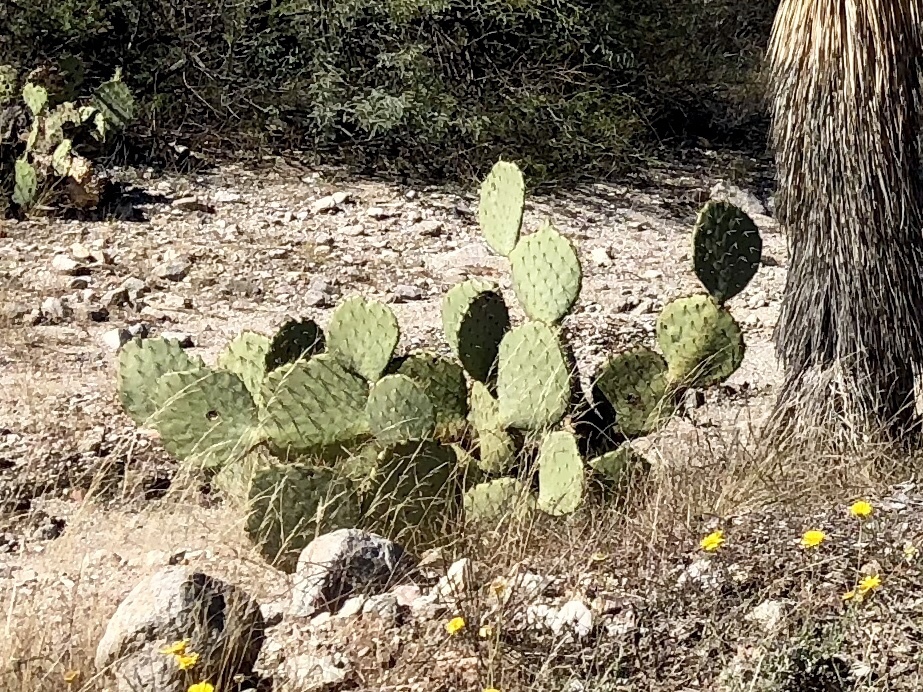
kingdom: Plantae
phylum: Tracheophyta
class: Magnoliopsida
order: Caryophyllales
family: Cactaceae
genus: Opuntia
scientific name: Opuntia engelmannii
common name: Cactus-apple
